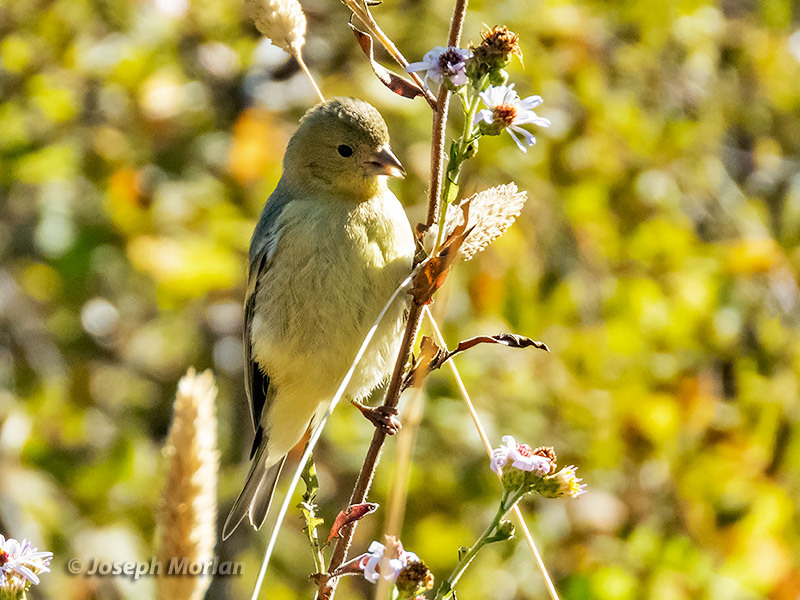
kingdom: Animalia
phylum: Chordata
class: Aves
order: Passeriformes
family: Fringillidae
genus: Spinus
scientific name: Spinus psaltria
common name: Lesser goldfinch
